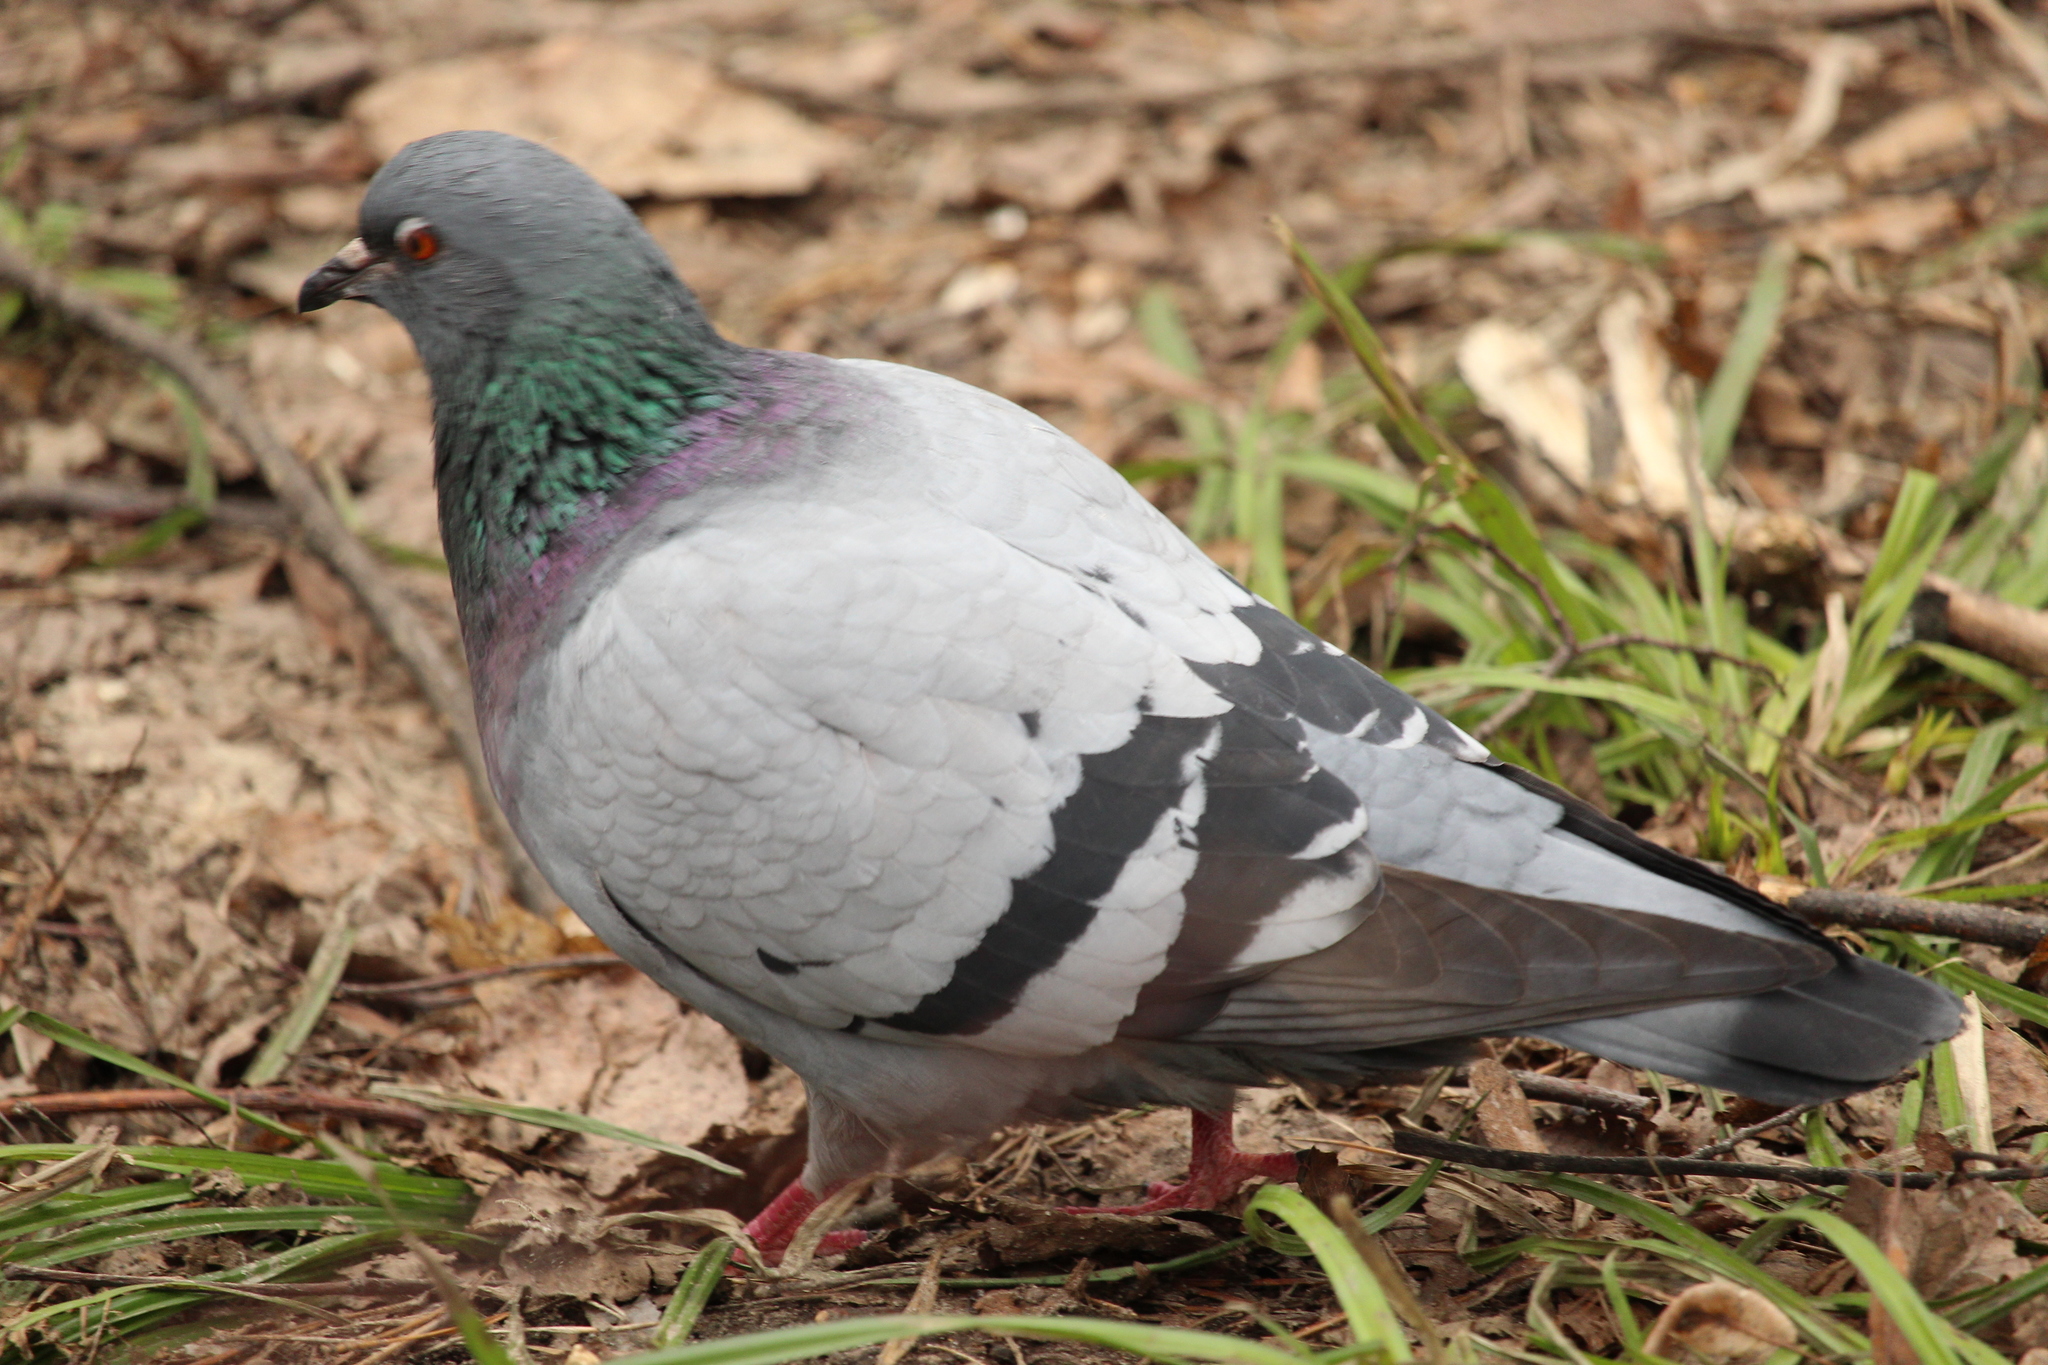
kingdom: Animalia
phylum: Chordata
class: Aves
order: Columbiformes
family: Columbidae
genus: Columba
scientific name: Columba livia
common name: Rock pigeon
